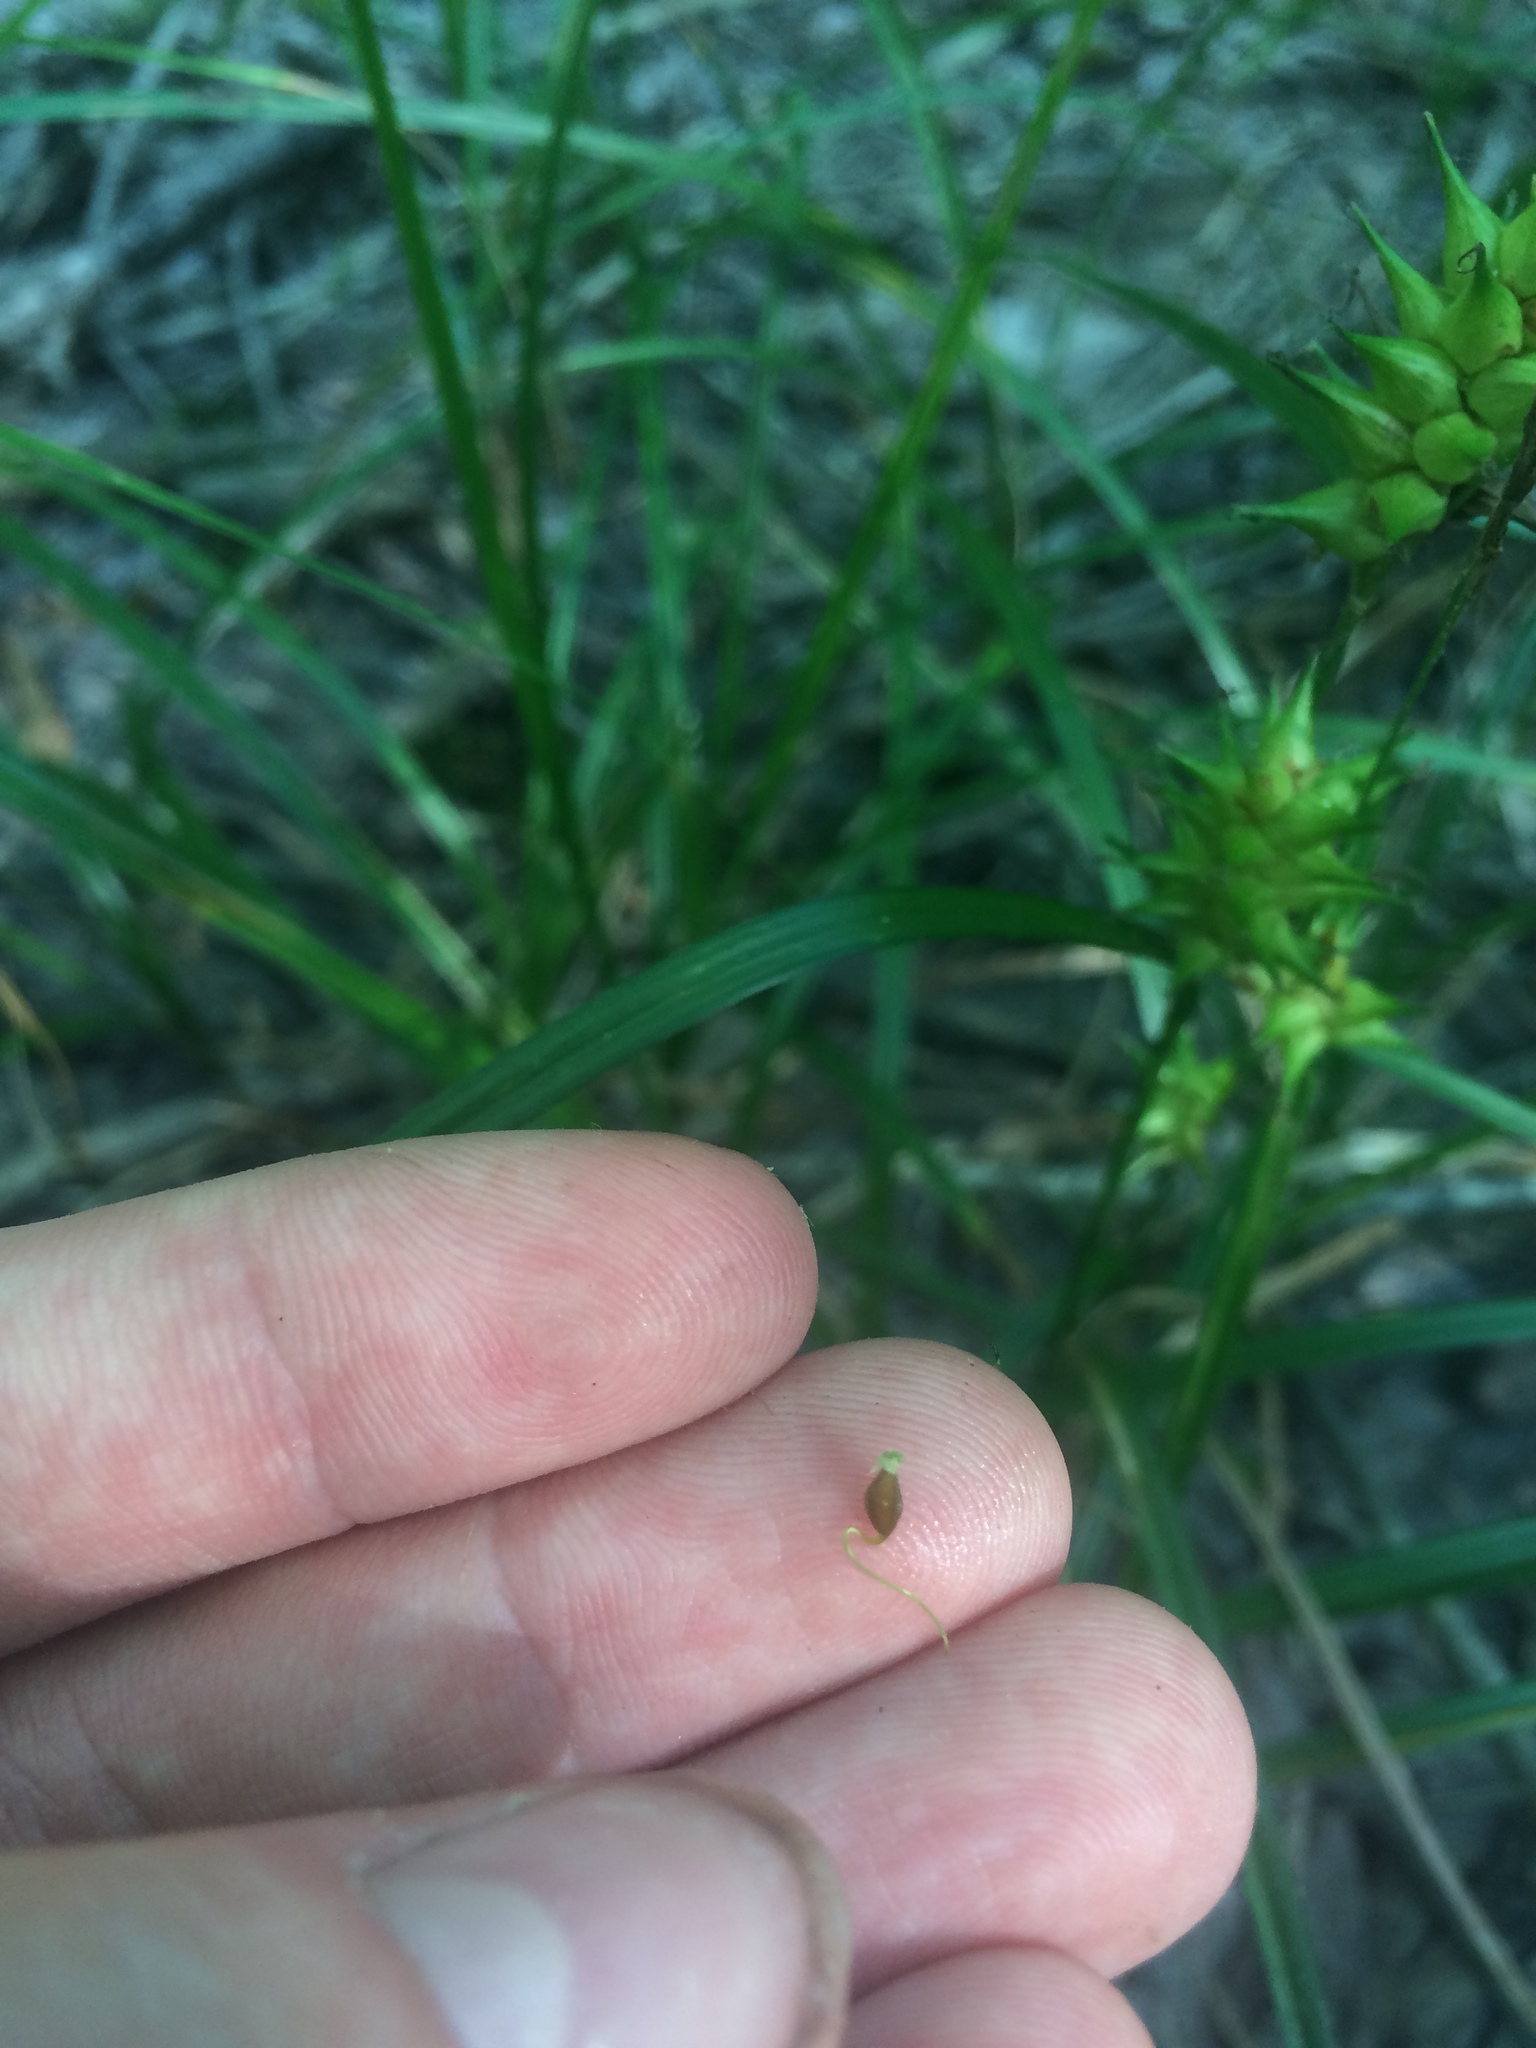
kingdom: Plantae
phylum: Tracheophyta
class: Liliopsida
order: Poales
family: Cyperaceae
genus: Carex
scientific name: Carex louisianica
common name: Louisiana sedge
